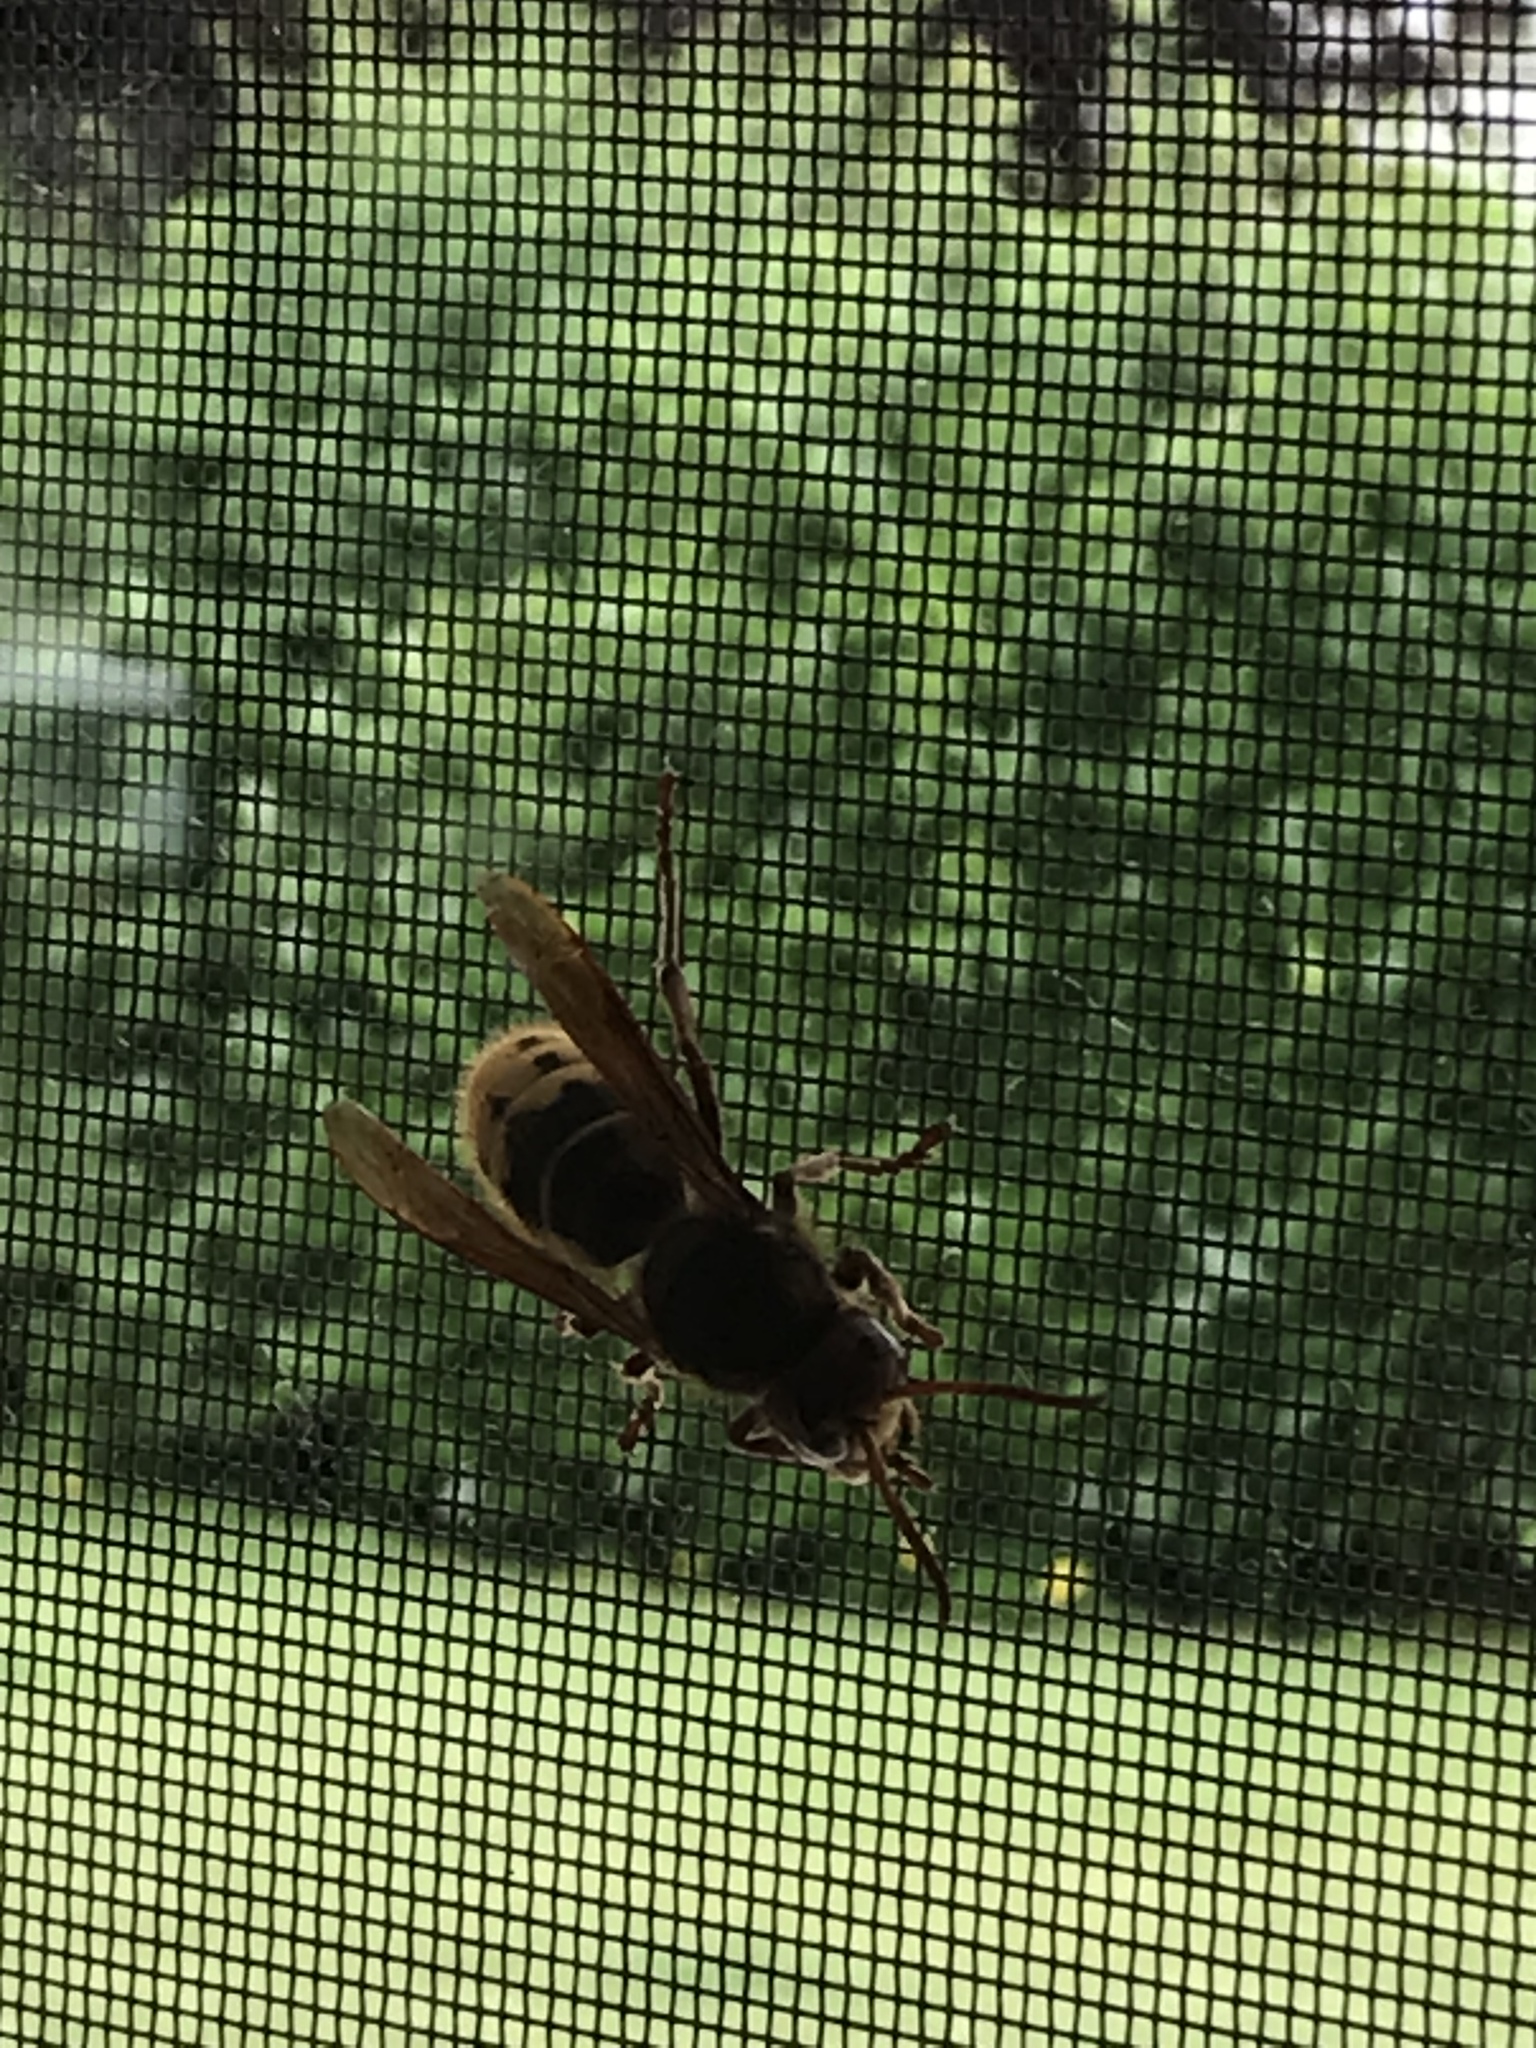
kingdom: Animalia
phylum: Arthropoda
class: Insecta
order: Hymenoptera
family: Vespidae
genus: Vespa
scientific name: Vespa crabro
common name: Hornet
